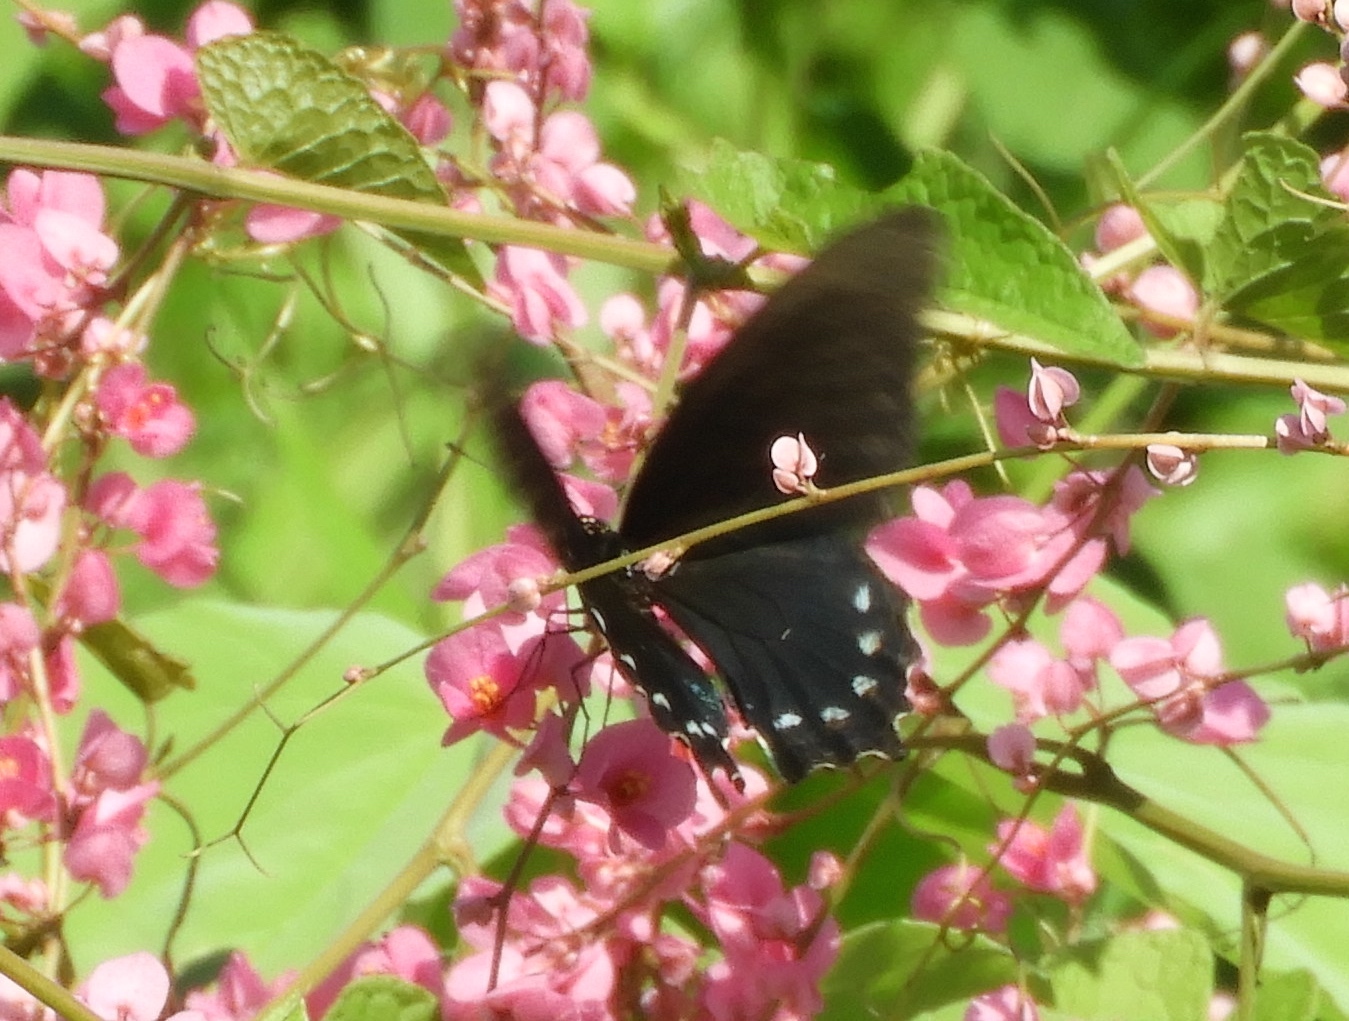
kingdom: Animalia
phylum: Arthropoda
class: Insecta
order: Lepidoptera
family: Papilionidae
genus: Battus
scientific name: Battus philenor
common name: Pipevine swallowtail
